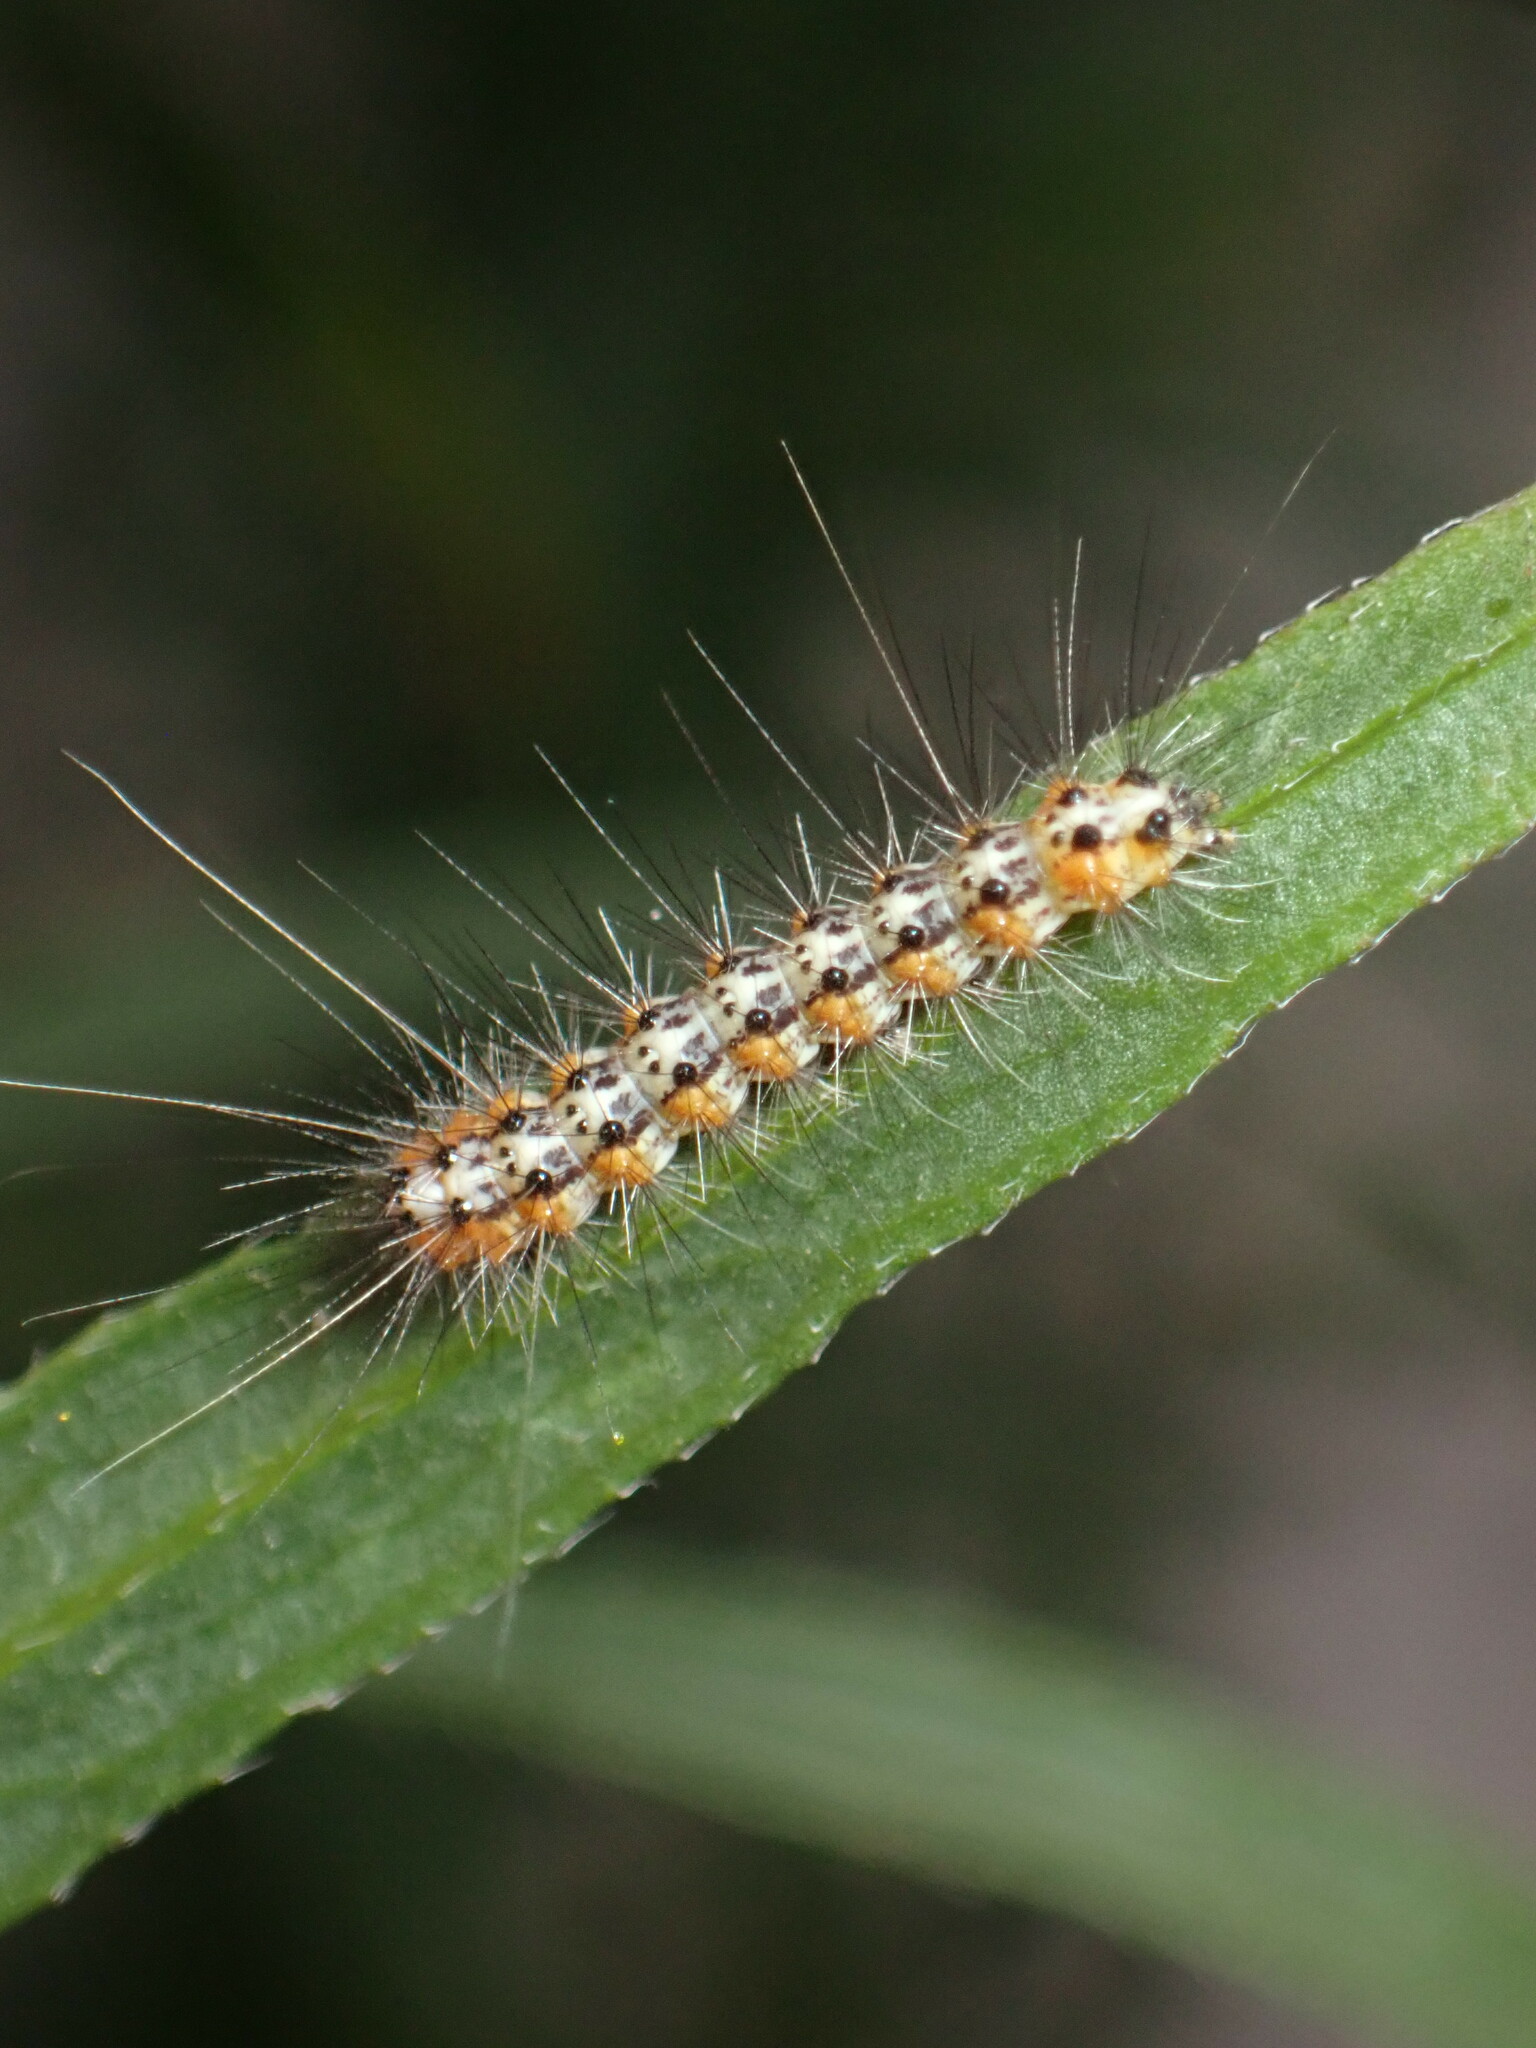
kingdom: Animalia
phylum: Arthropoda
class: Insecta
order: Lepidoptera
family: Erebidae
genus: Estigmene
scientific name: Estigmene acrea
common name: Salt marsh moth
